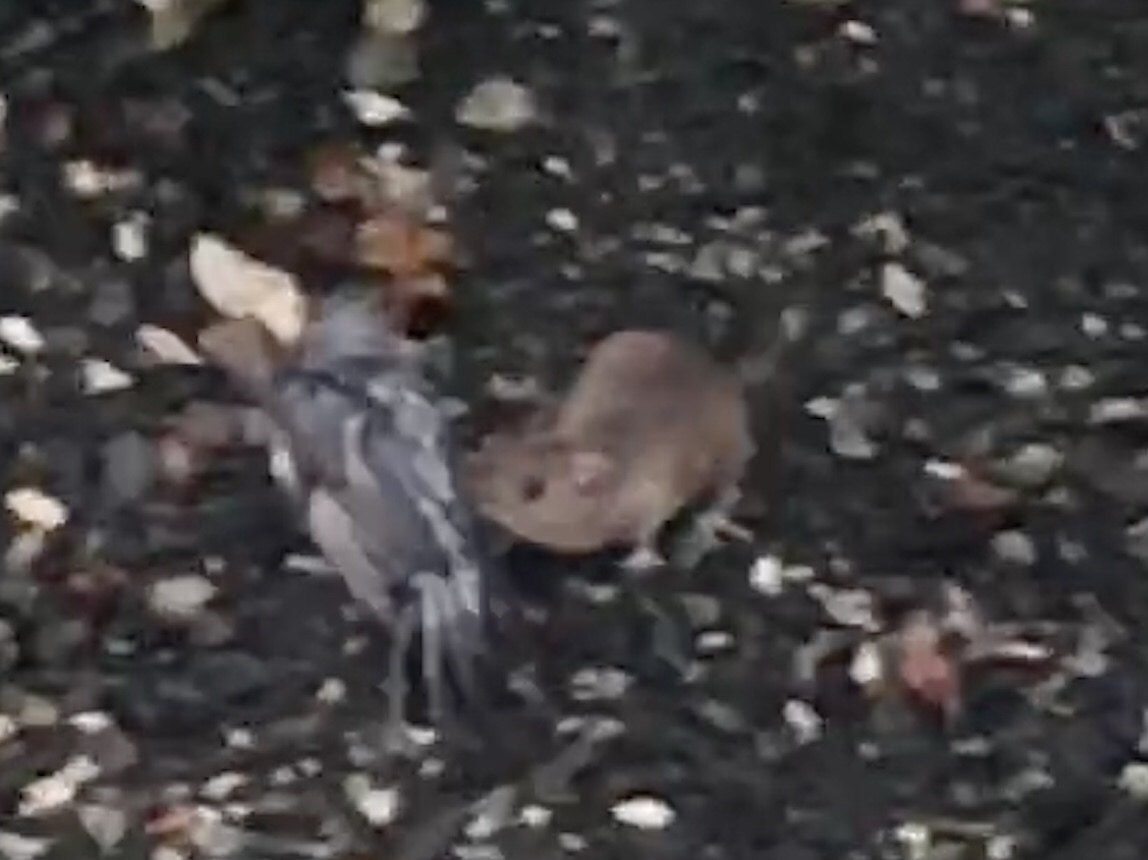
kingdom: Animalia
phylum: Chordata
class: Aves
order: Passeriformes
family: Passeridae
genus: Passer
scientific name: Passer domesticus
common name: House sparrow
